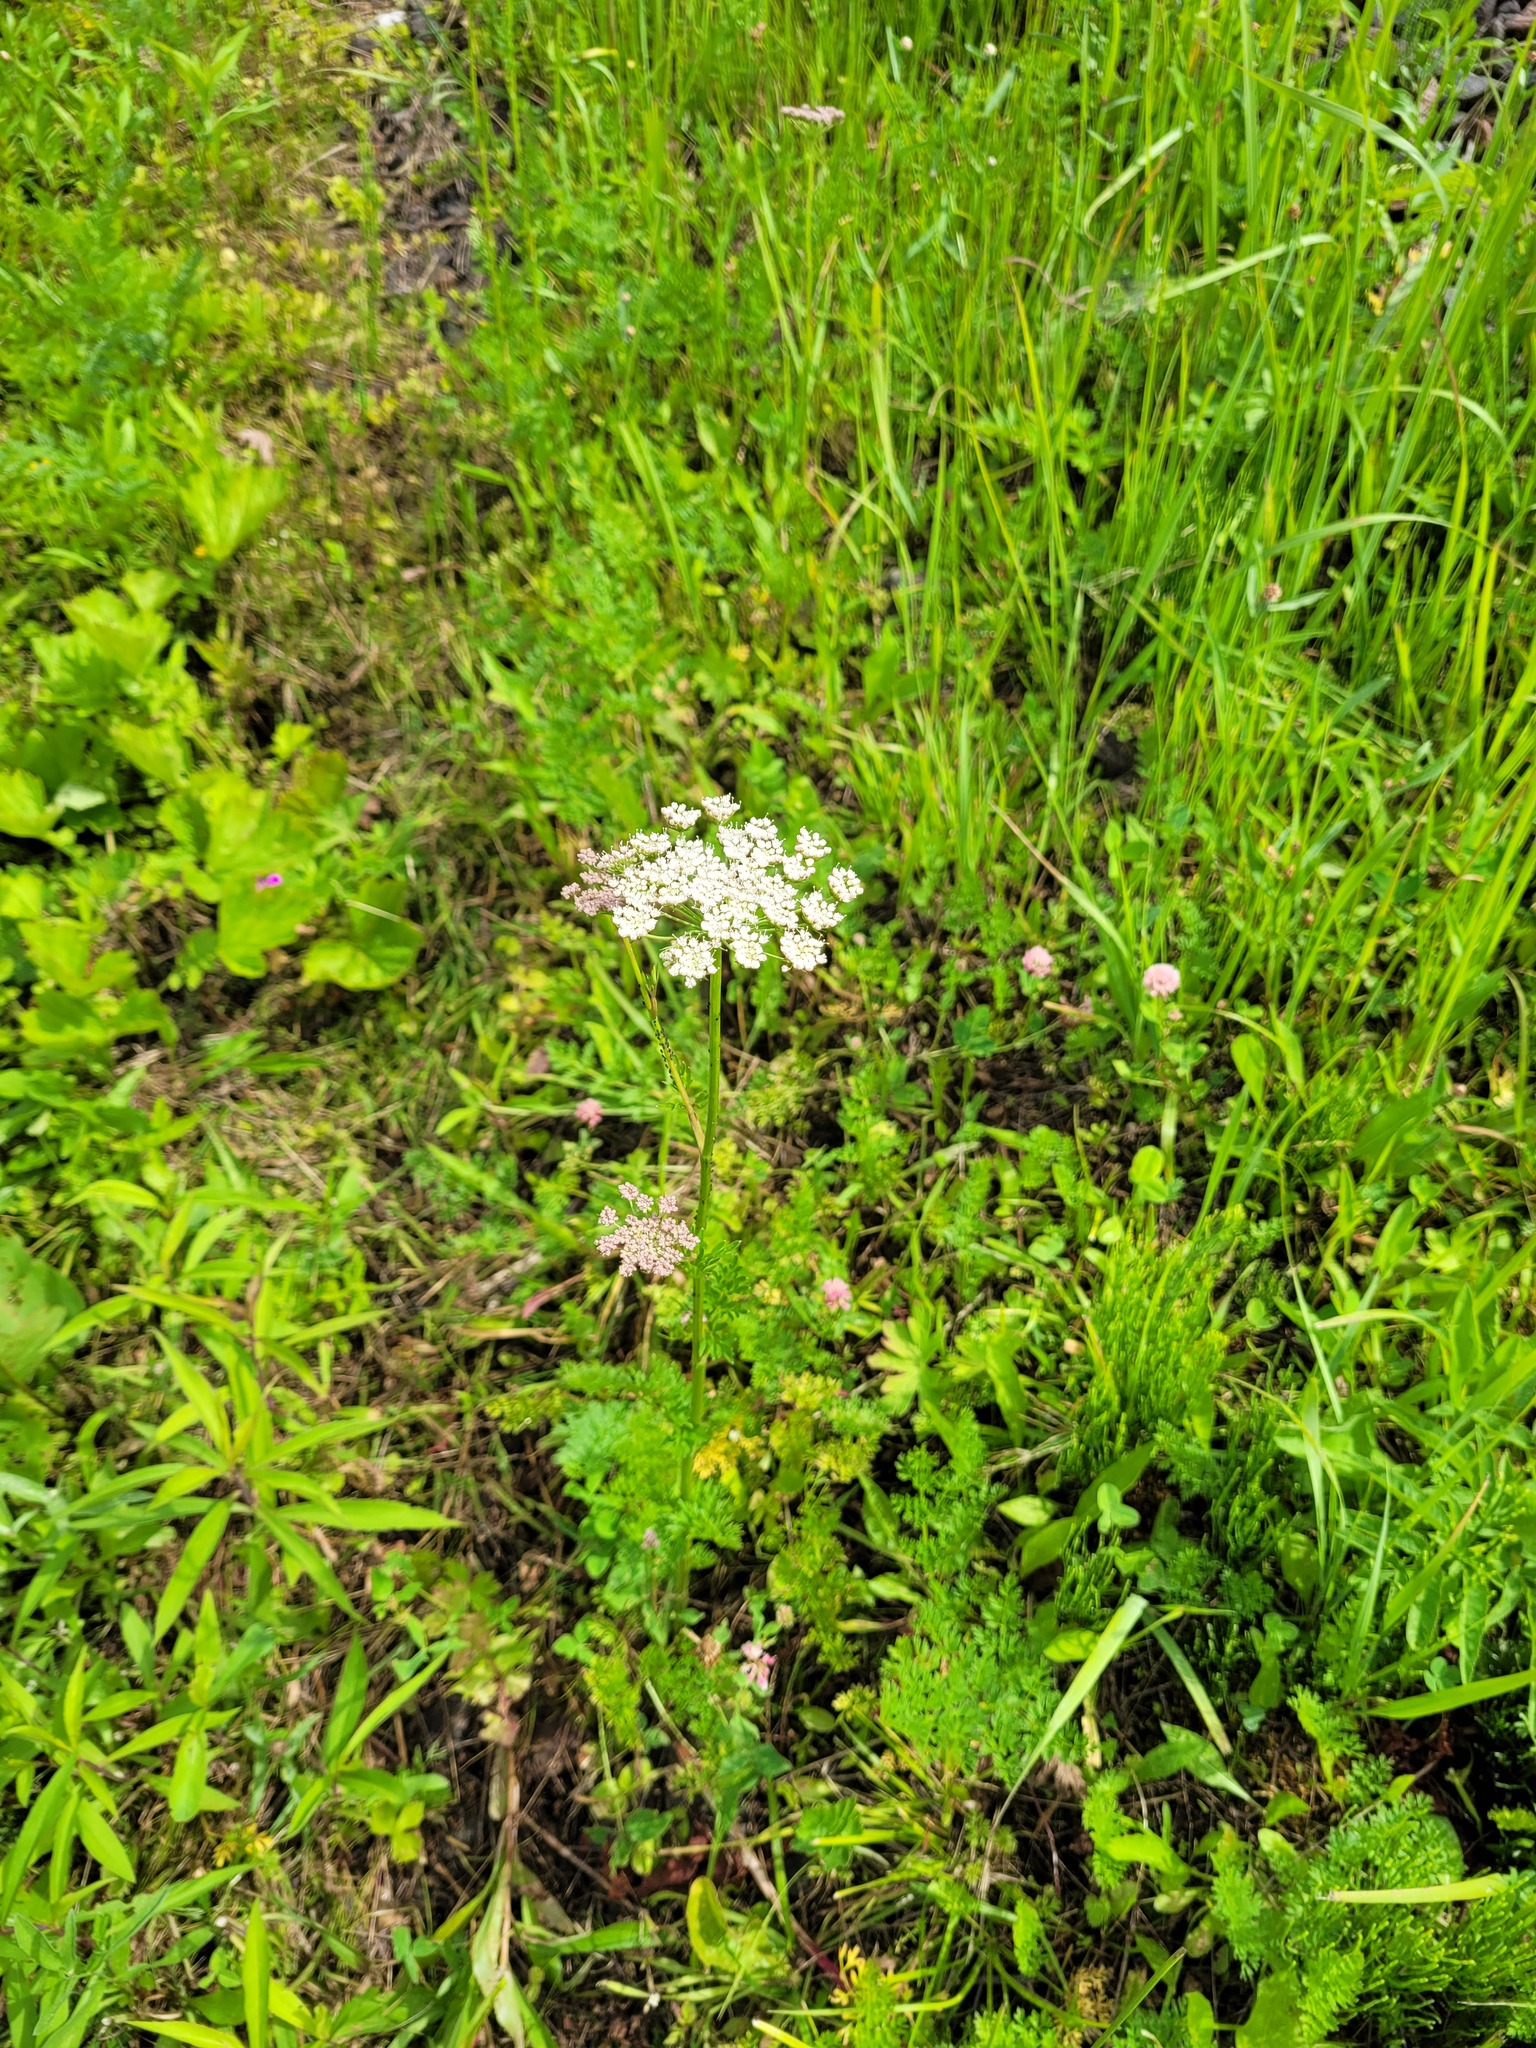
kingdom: Plantae
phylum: Tracheophyta
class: Magnoliopsida
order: Apiales
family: Apiaceae
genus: Selinum
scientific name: Selinum carvifolia
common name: Cambridge milk-parsley
